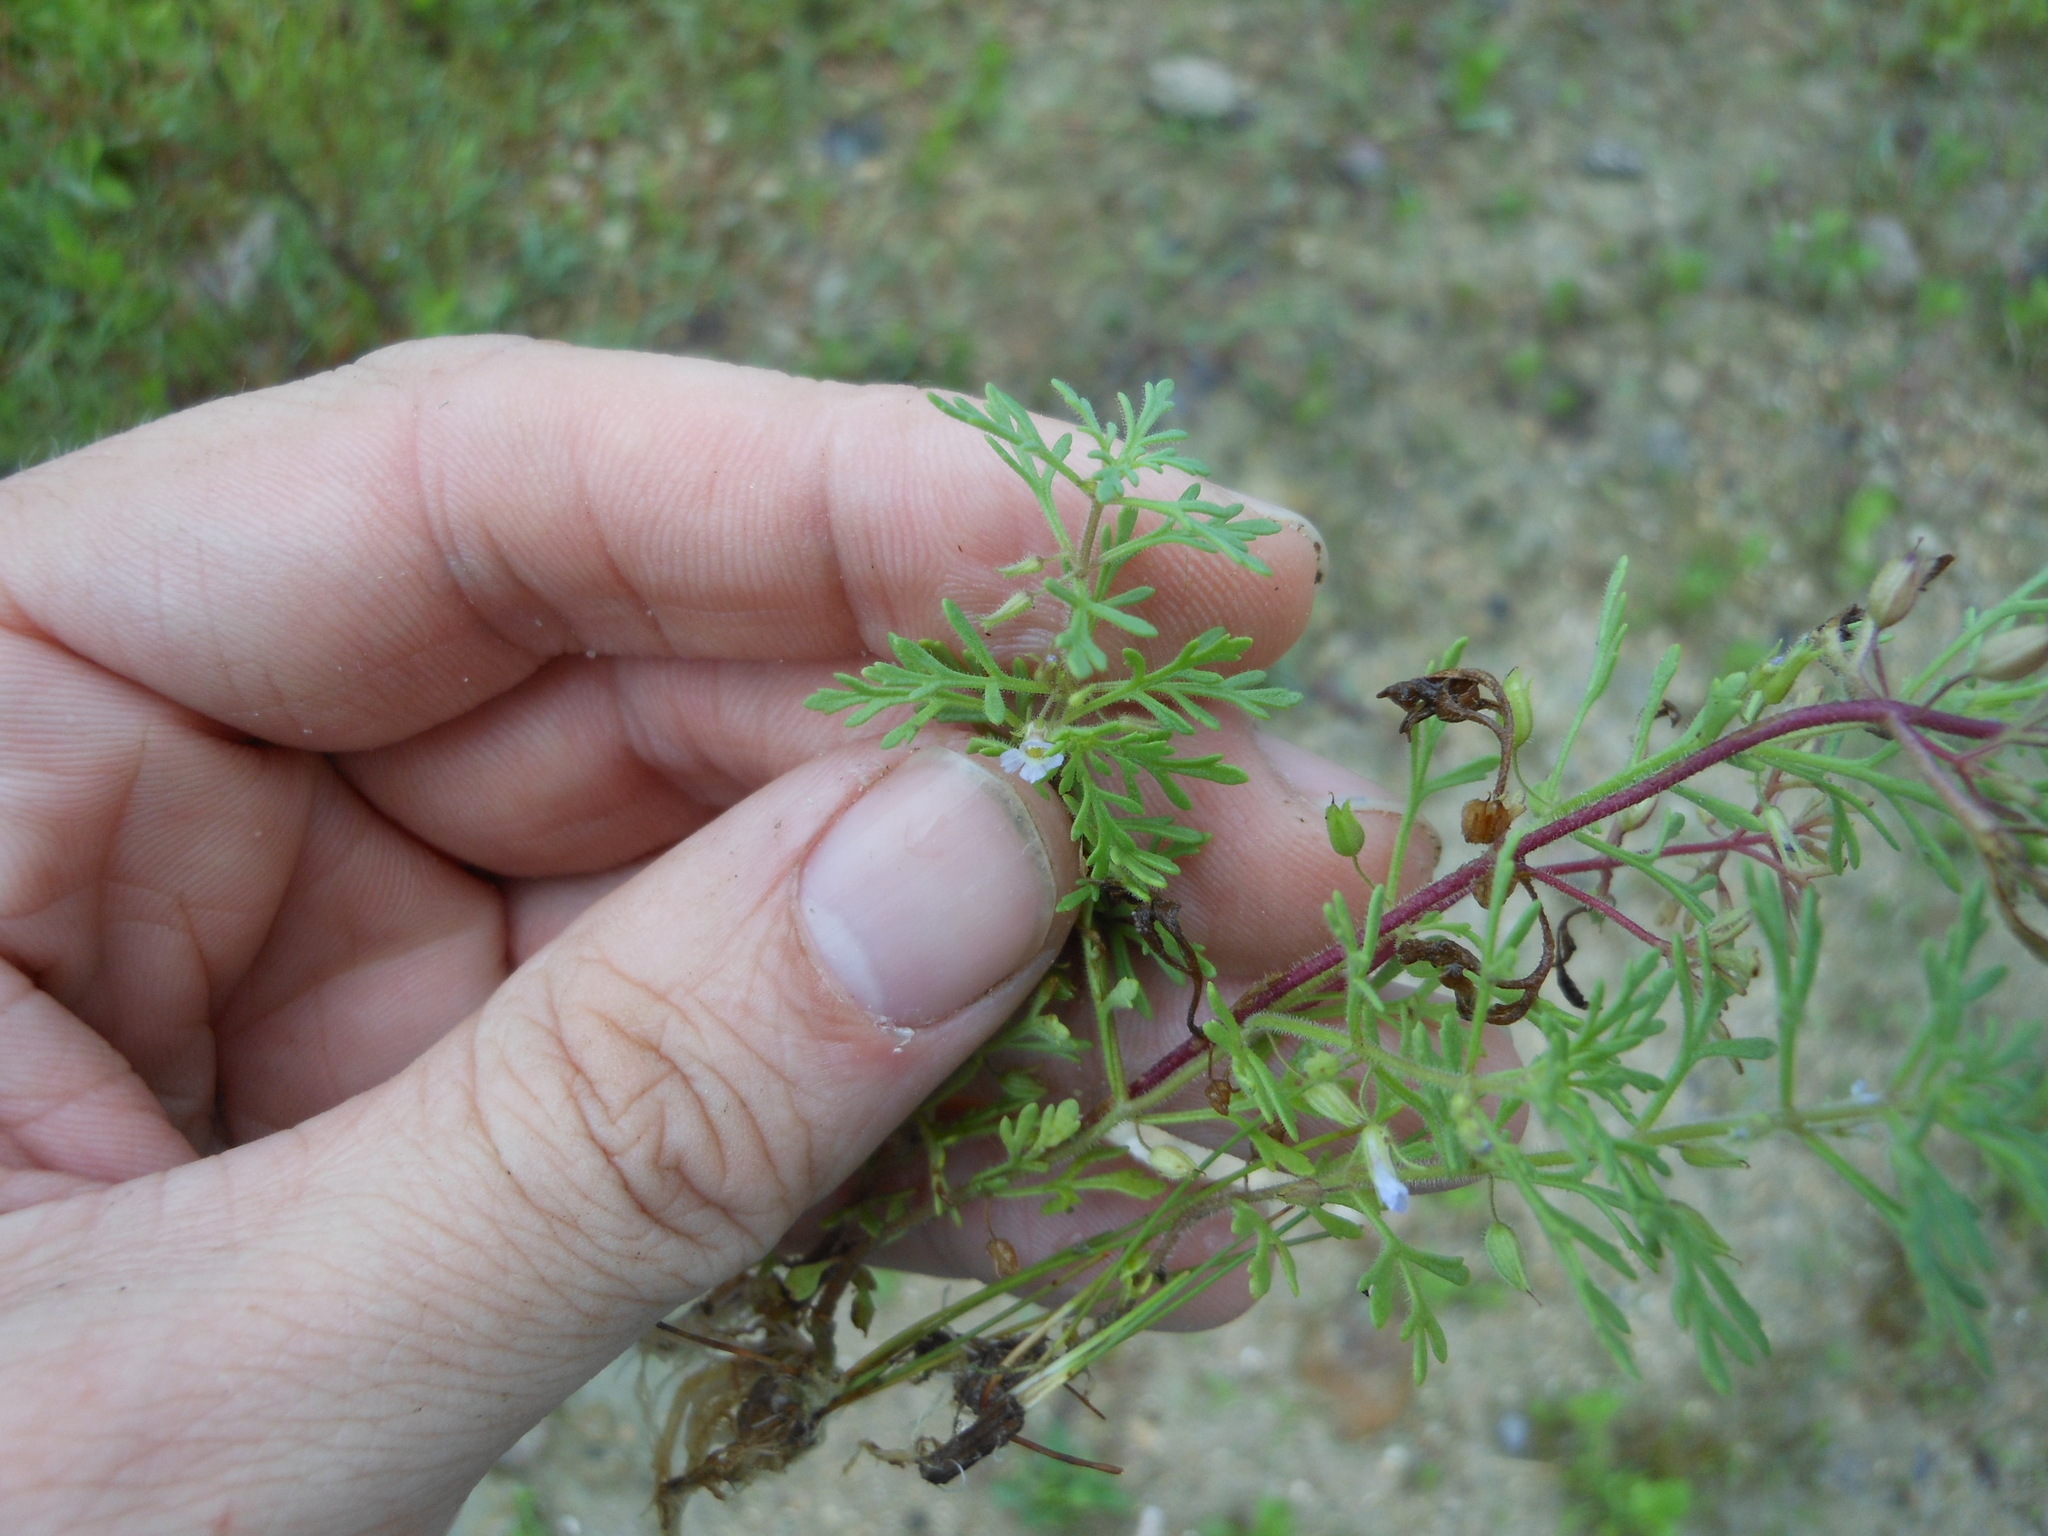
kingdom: Plantae
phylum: Tracheophyta
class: Magnoliopsida
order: Lamiales
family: Plantaginaceae
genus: Leucospora
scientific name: Leucospora multifida
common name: Narrow-leaf paleseed
